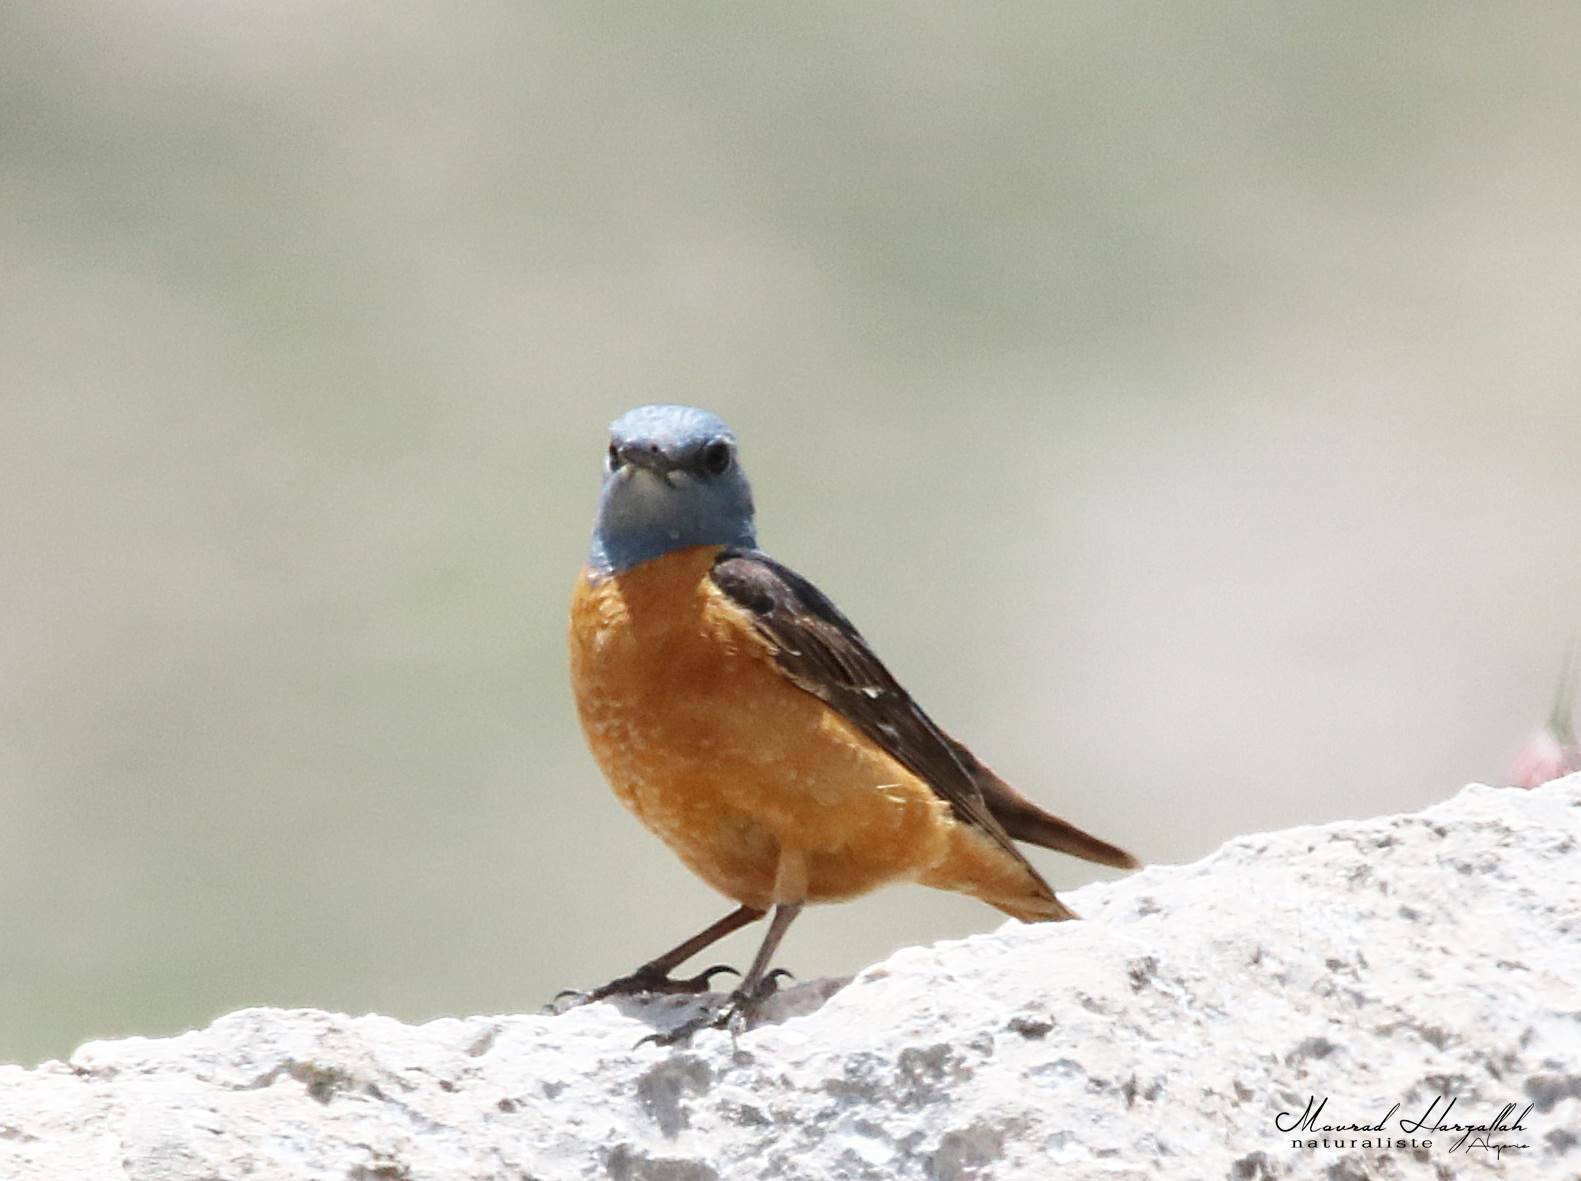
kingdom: Animalia
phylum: Chordata
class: Aves
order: Passeriformes
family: Muscicapidae
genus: Monticola
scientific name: Monticola saxatilis
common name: Rufous-tailed rock thrush
